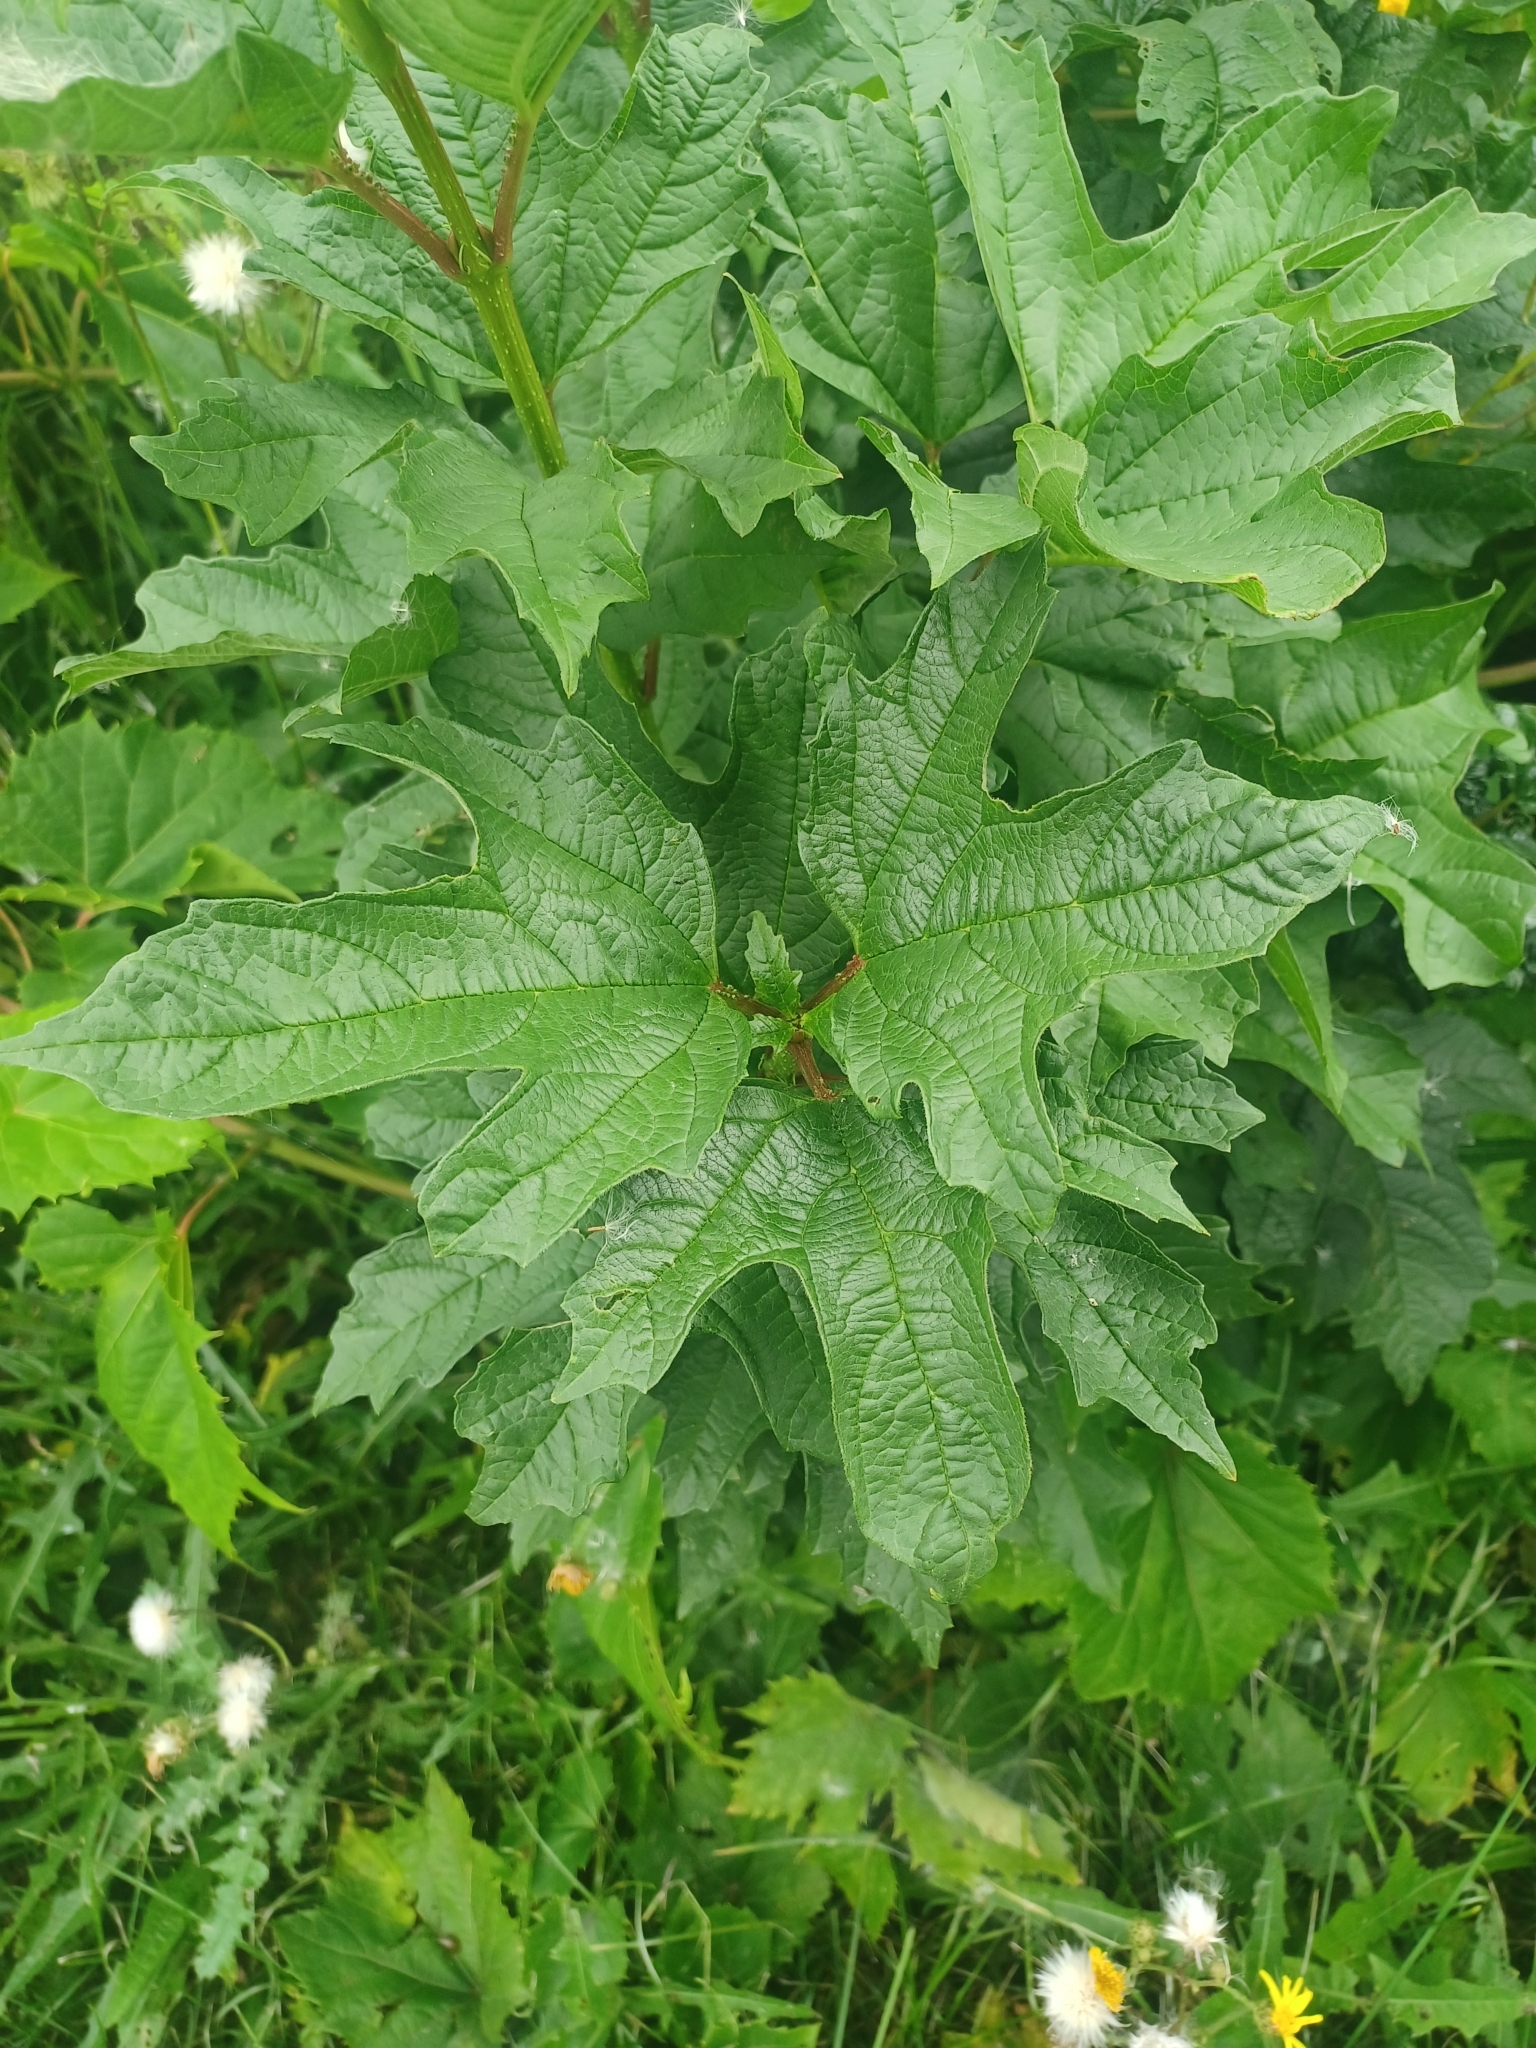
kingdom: Plantae
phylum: Tracheophyta
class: Magnoliopsida
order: Dipsacales
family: Viburnaceae
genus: Viburnum
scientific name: Viburnum opulus
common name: Guelder-rose
